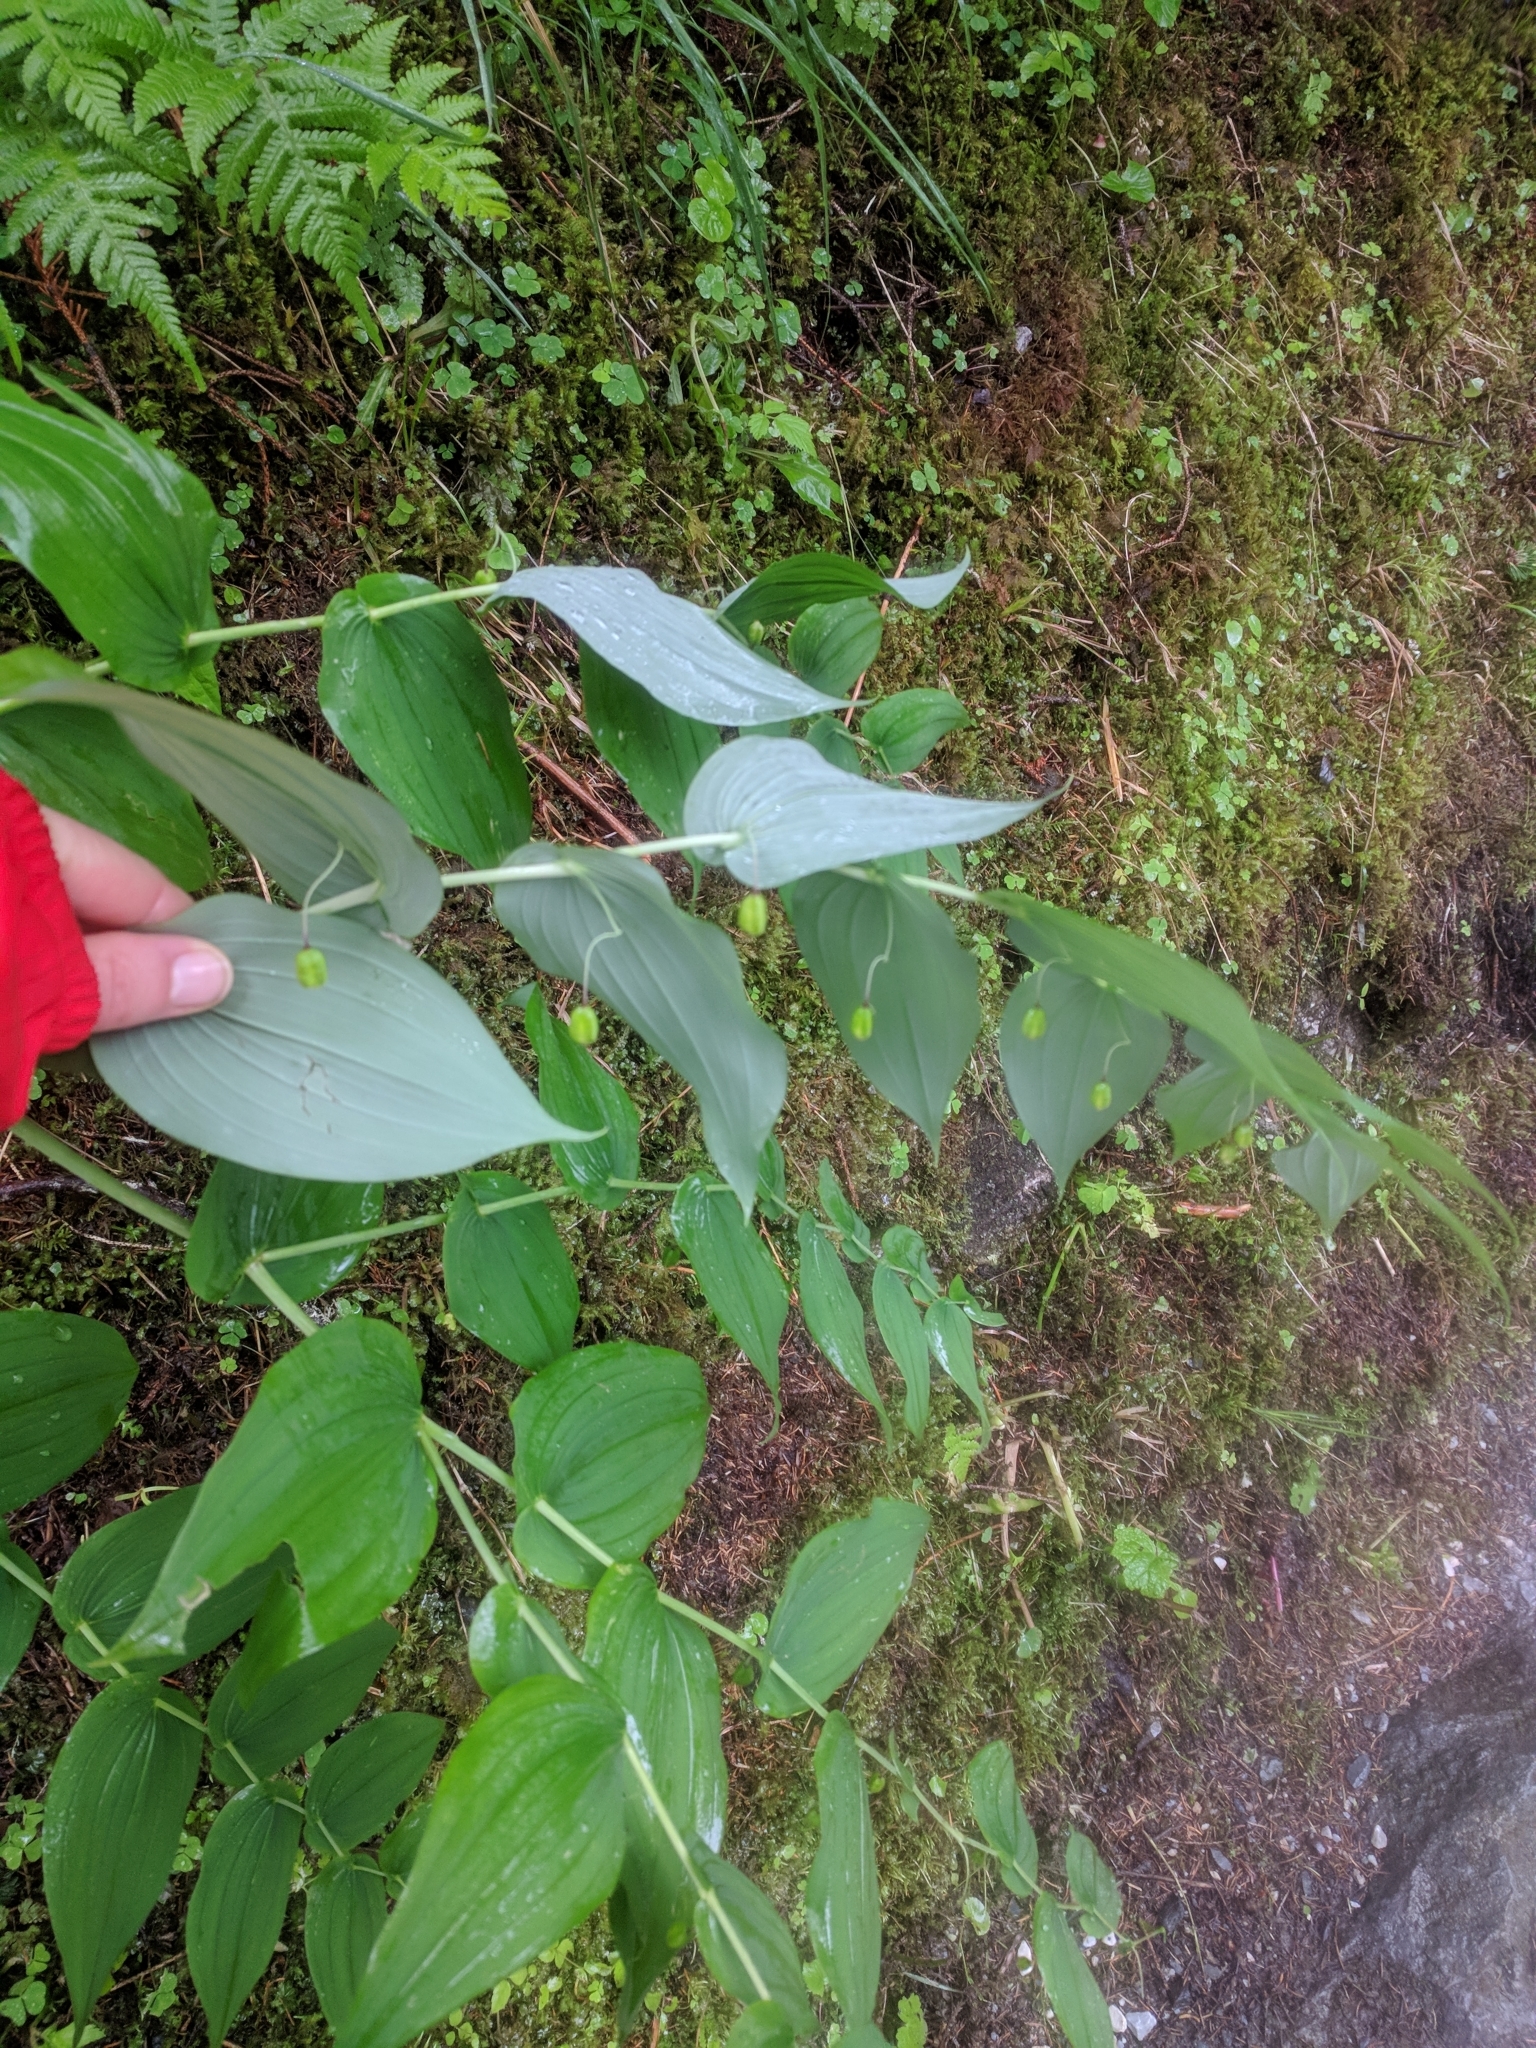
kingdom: Plantae
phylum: Tracheophyta
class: Liliopsida
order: Liliales
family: Liliaceae
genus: Streptopus
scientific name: Streptopus amplexifolius
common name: Clasp twisted stalk
